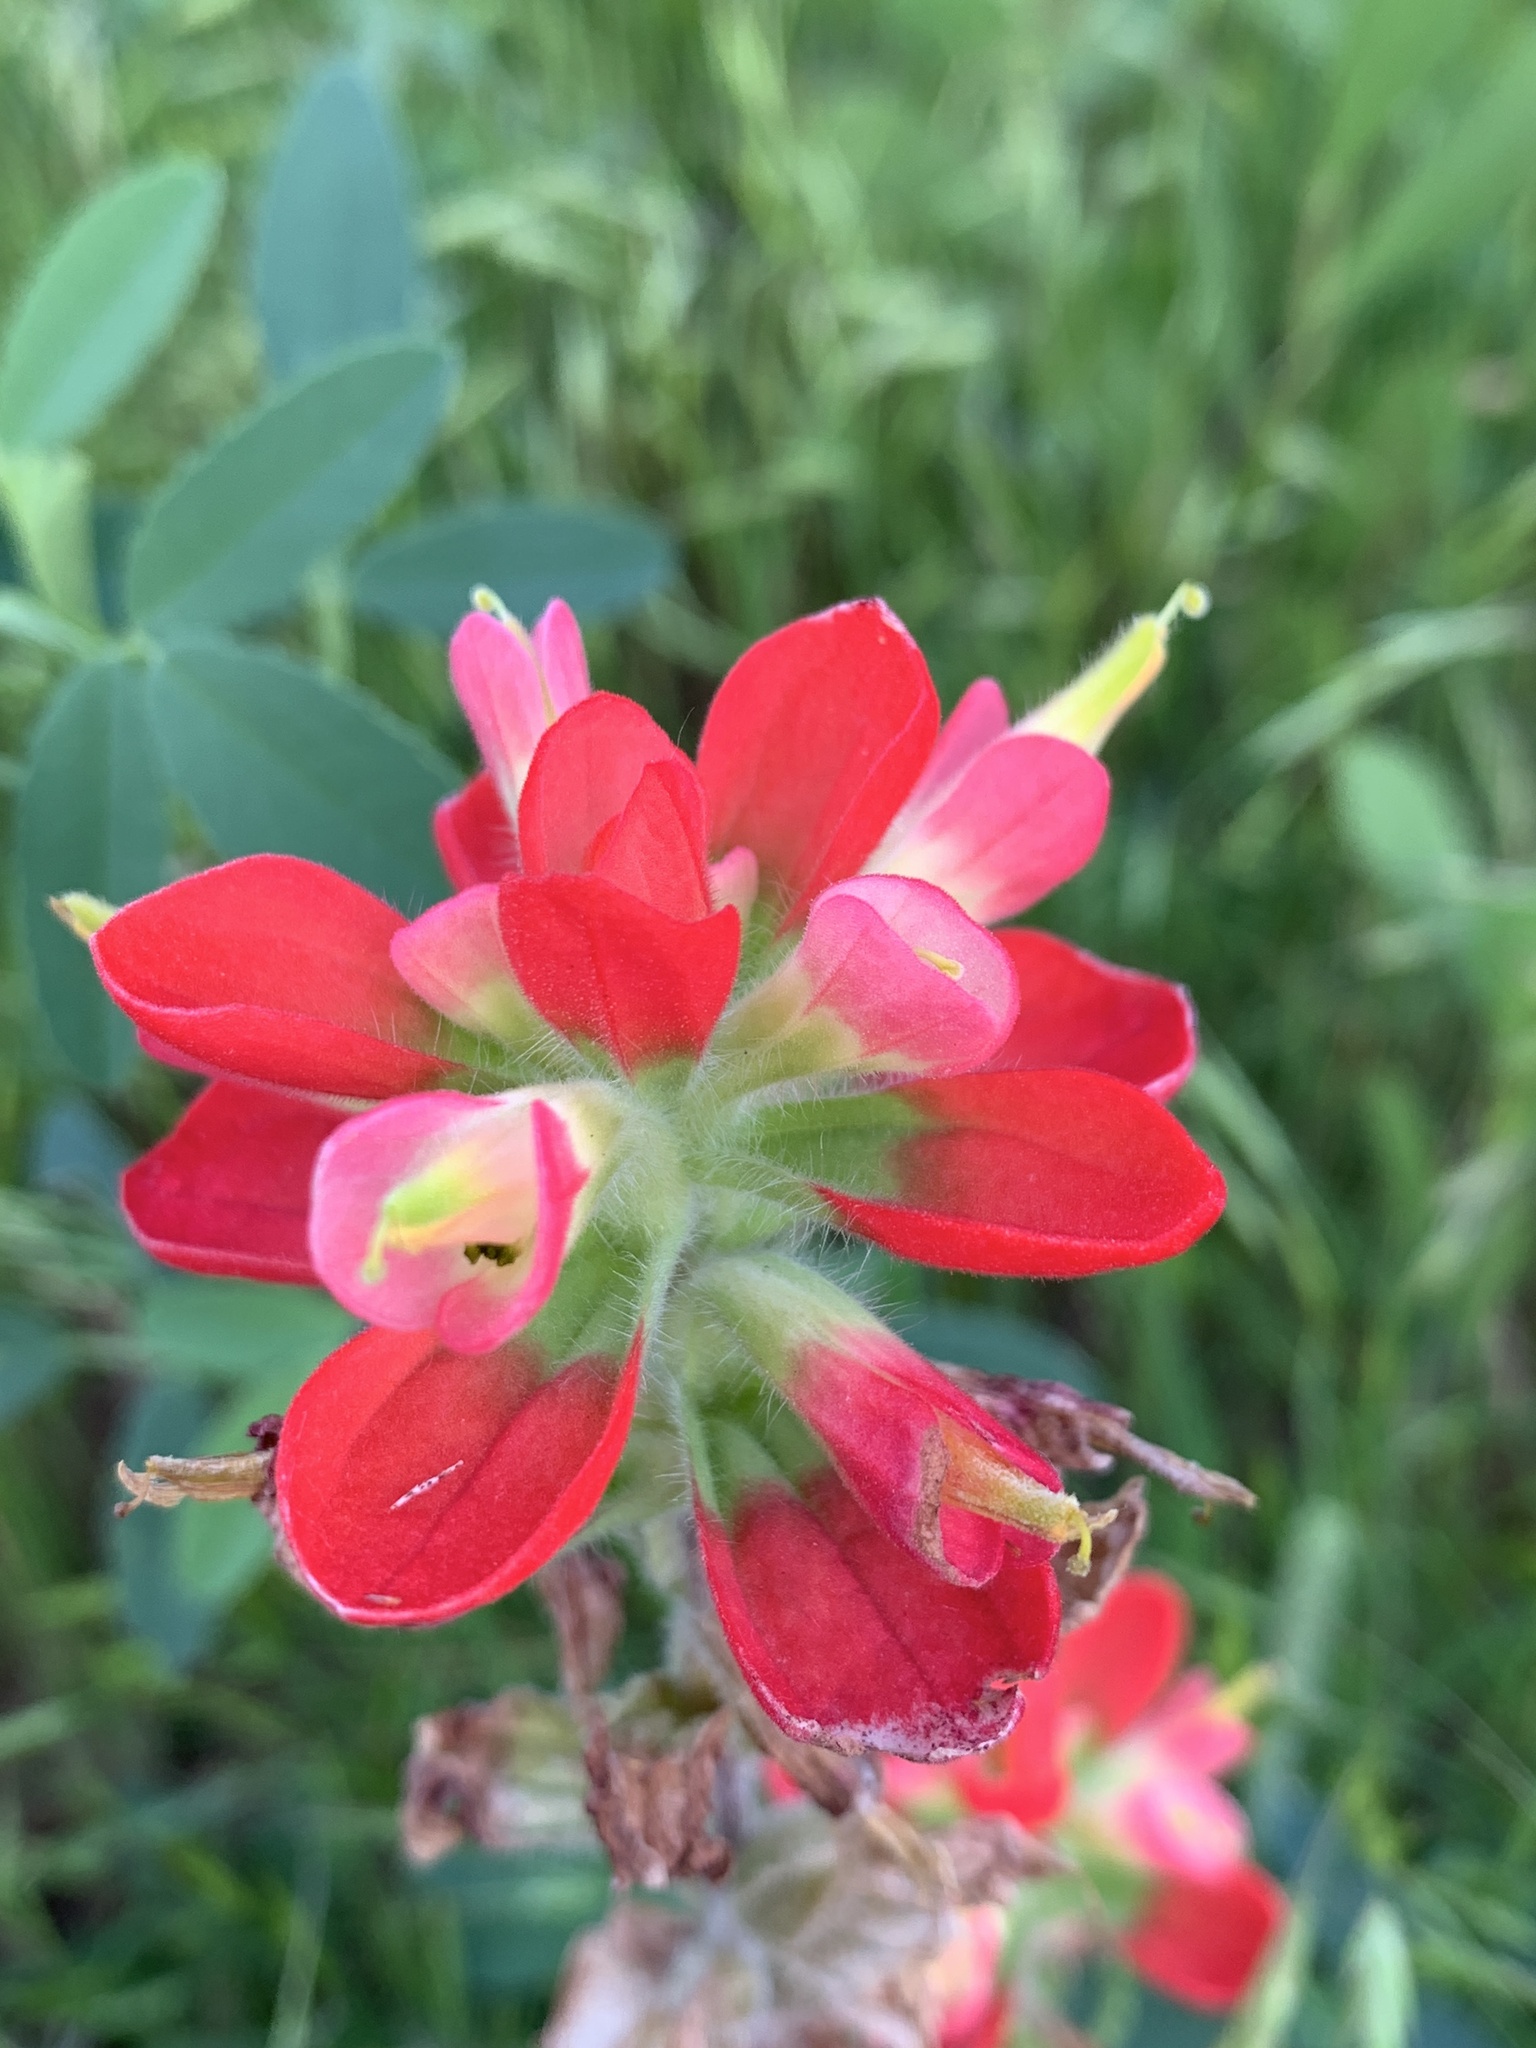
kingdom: Plantae
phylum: Tracheophyta
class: Magnoliopsida
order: Lamiales
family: Orobanchaceae
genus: Castilleja
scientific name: Castilleja indivisa
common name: Texas paintbrush
